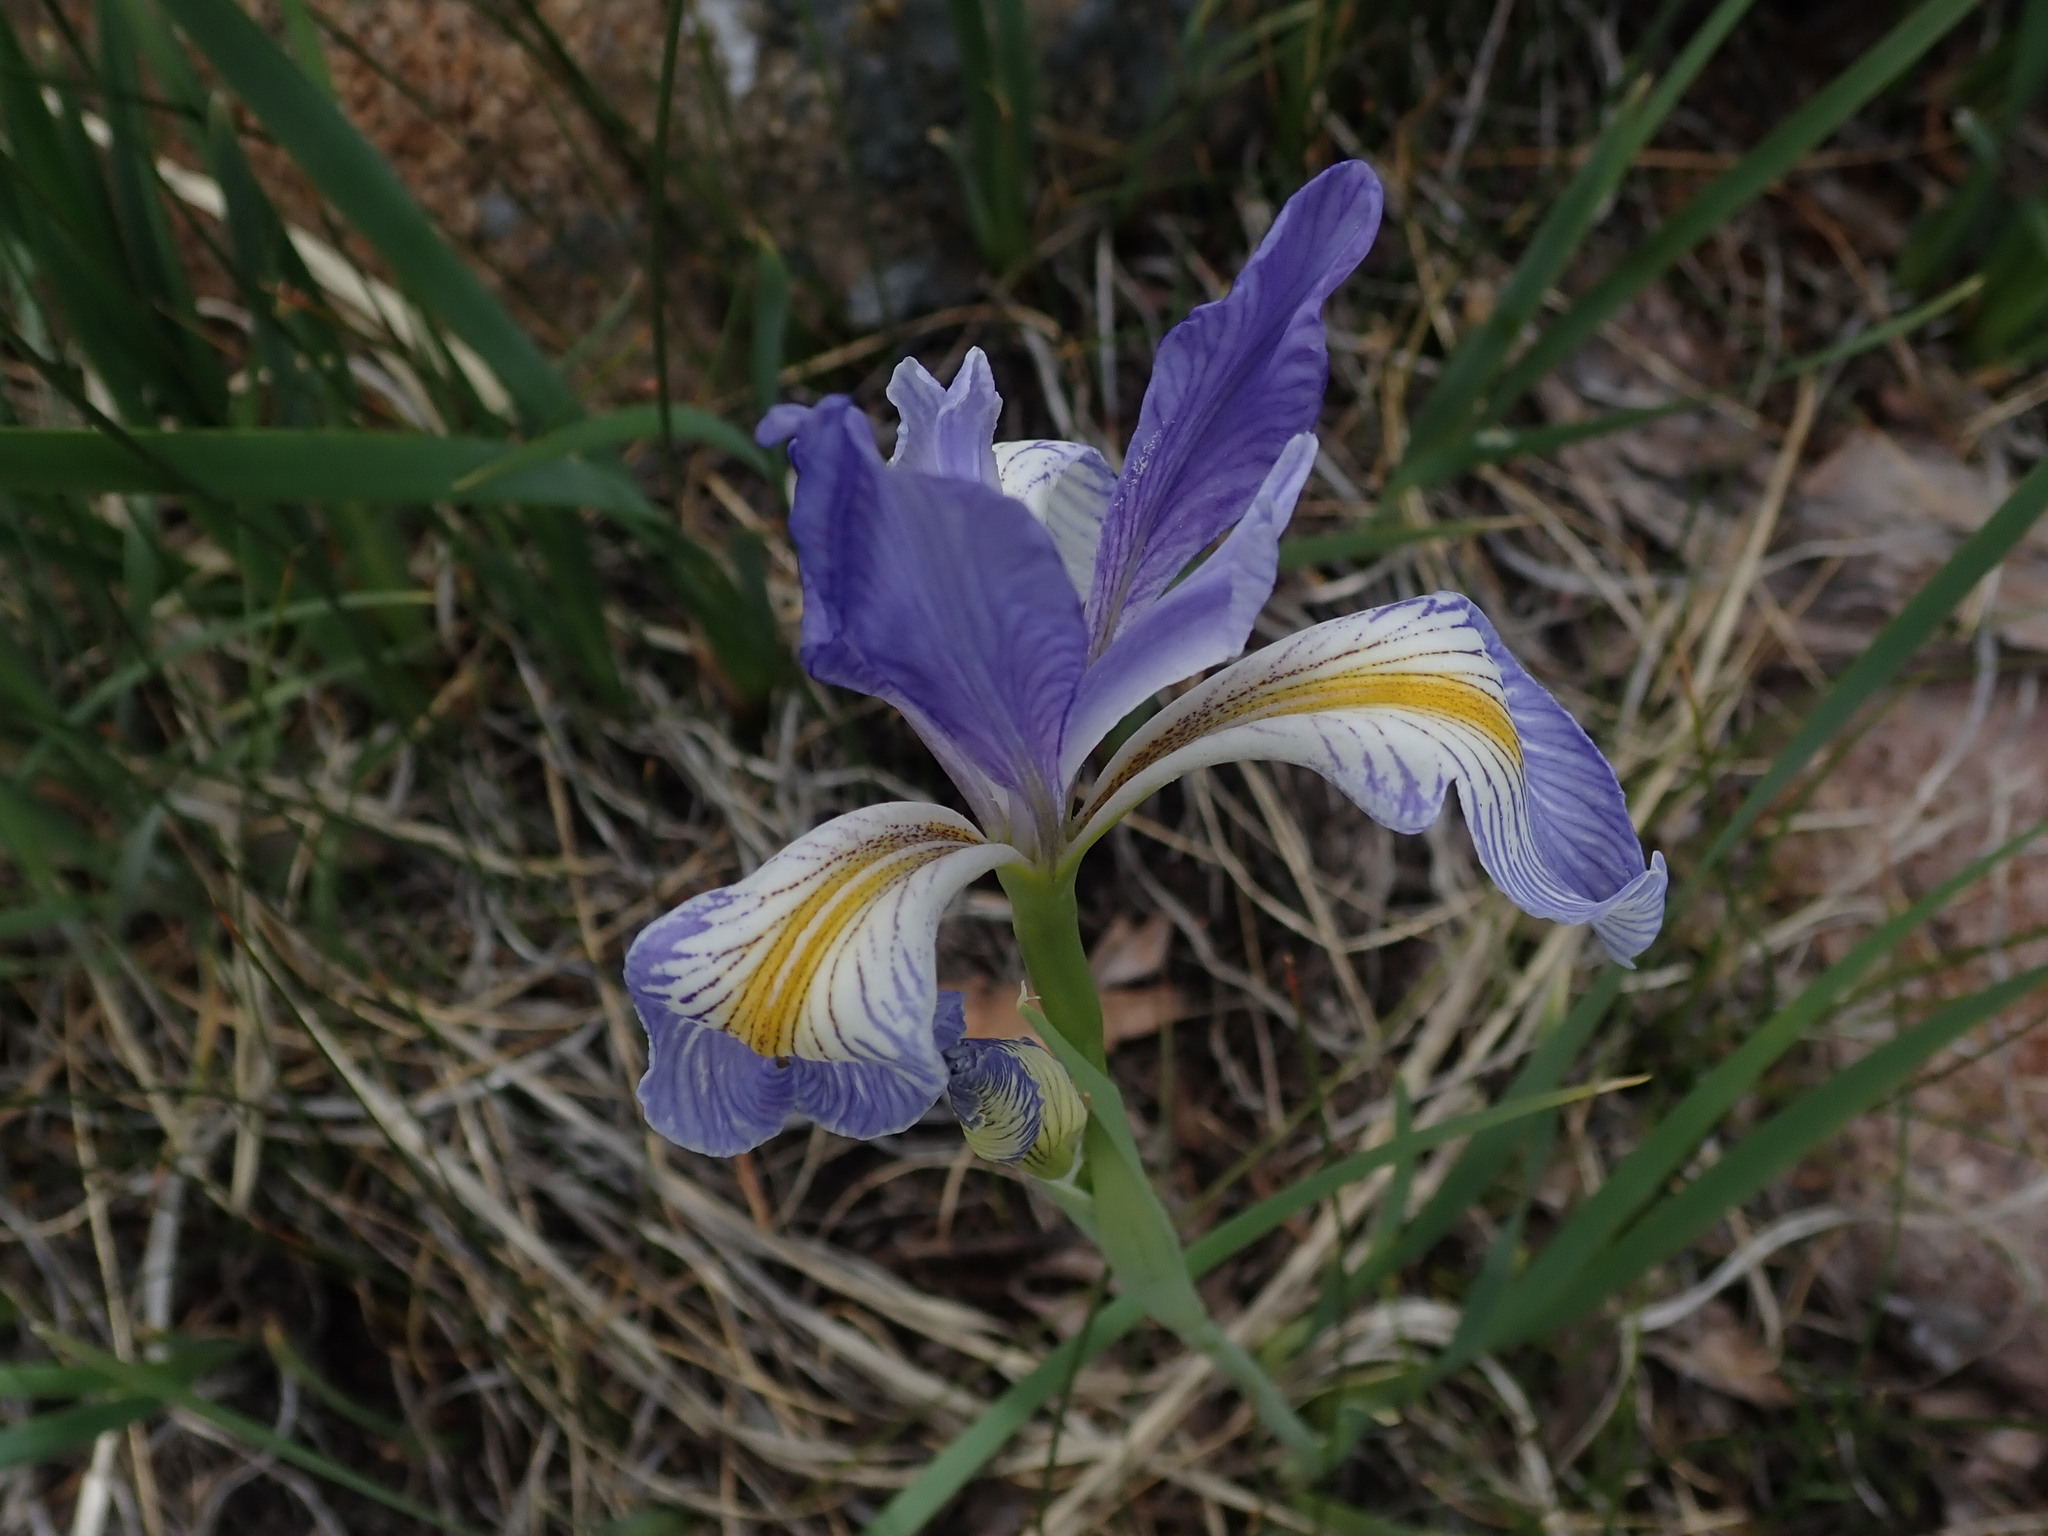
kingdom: Plantae
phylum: Tracheophyta
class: Liliopsida
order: Asparagales
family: Iridaceae
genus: Iris
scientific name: Iris missouriensis
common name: Rocky mountain iris
